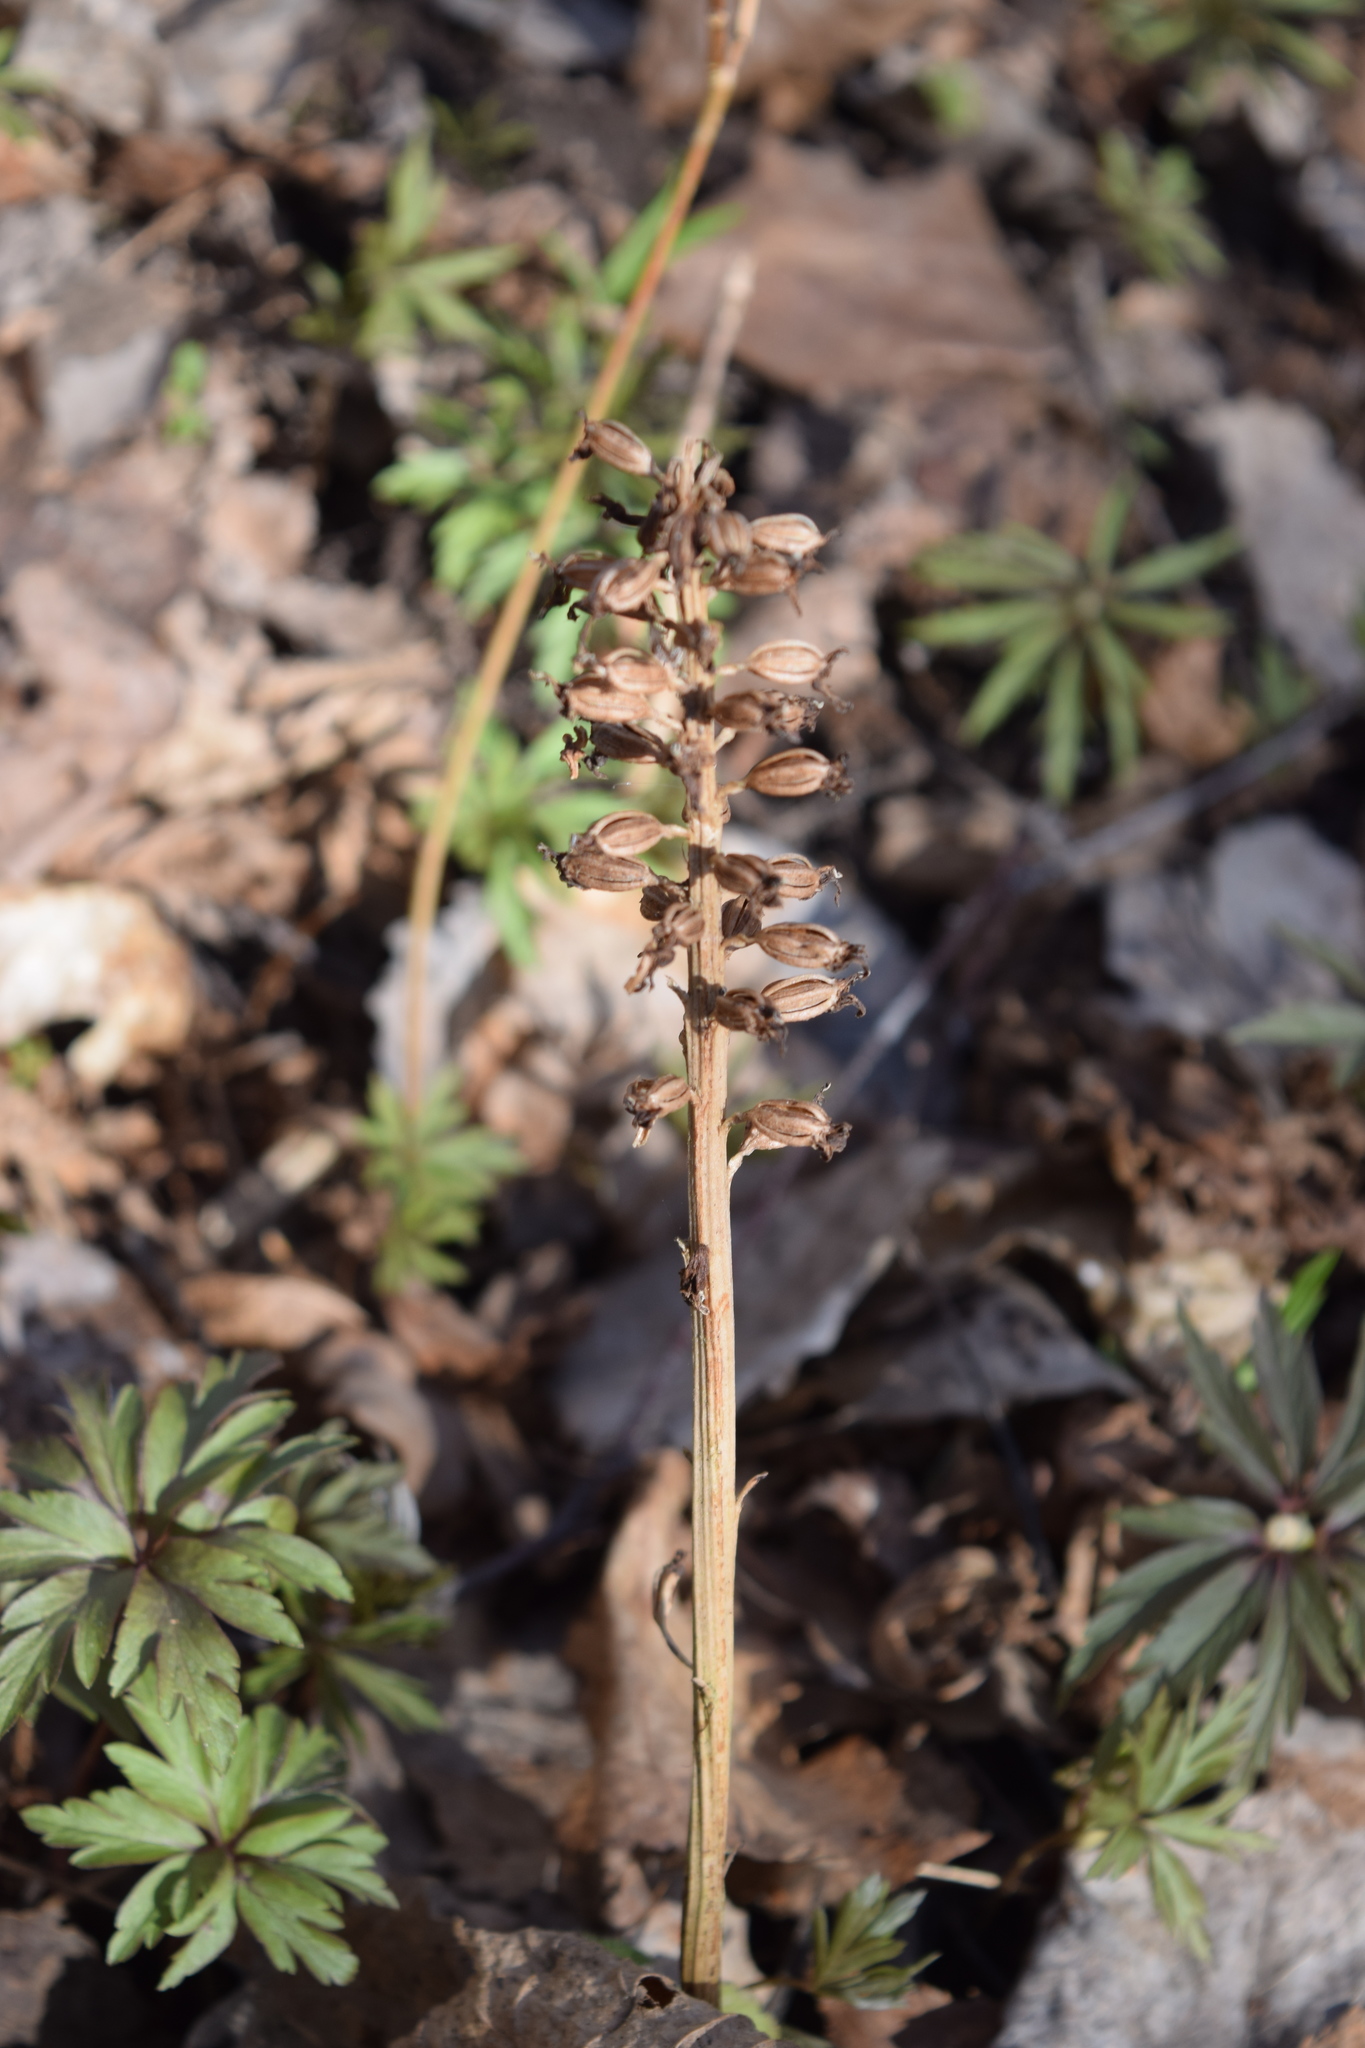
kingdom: Plantae
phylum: Tracheophyta
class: Liliopsida
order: Asparagales
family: Orchidaceae
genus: Neottia
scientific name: Neottia nidus-avis
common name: Bird's-nest orchid
